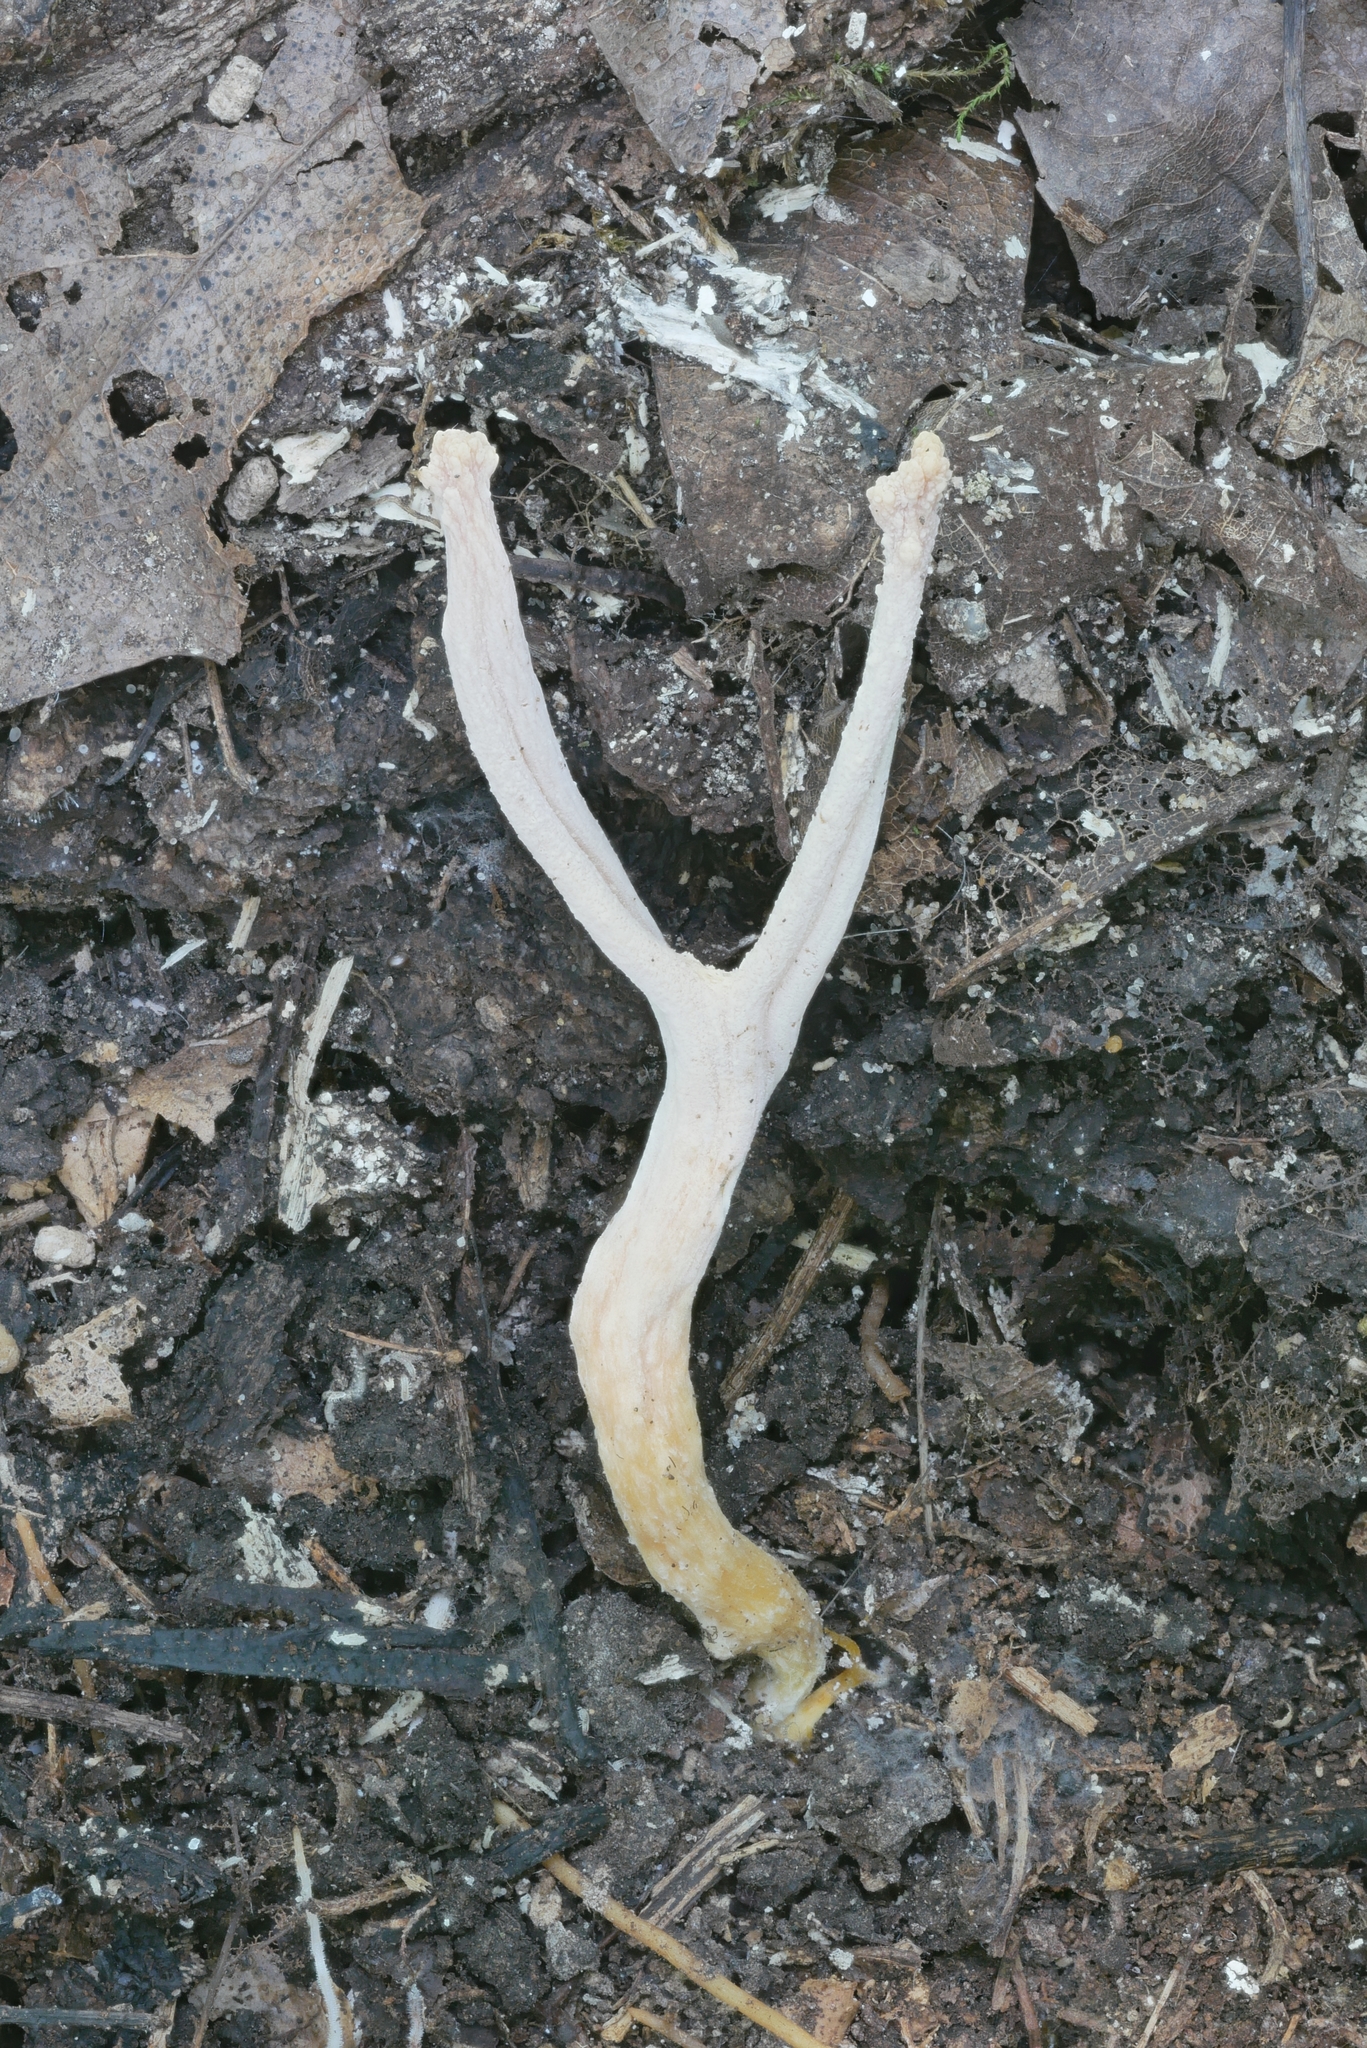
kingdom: Fungi
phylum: Basidiomycota
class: Agaricomycetes
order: Agaricales
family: Clavariaceae
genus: Clavulinopsis
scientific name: Clavulinopsis appalachiensis
